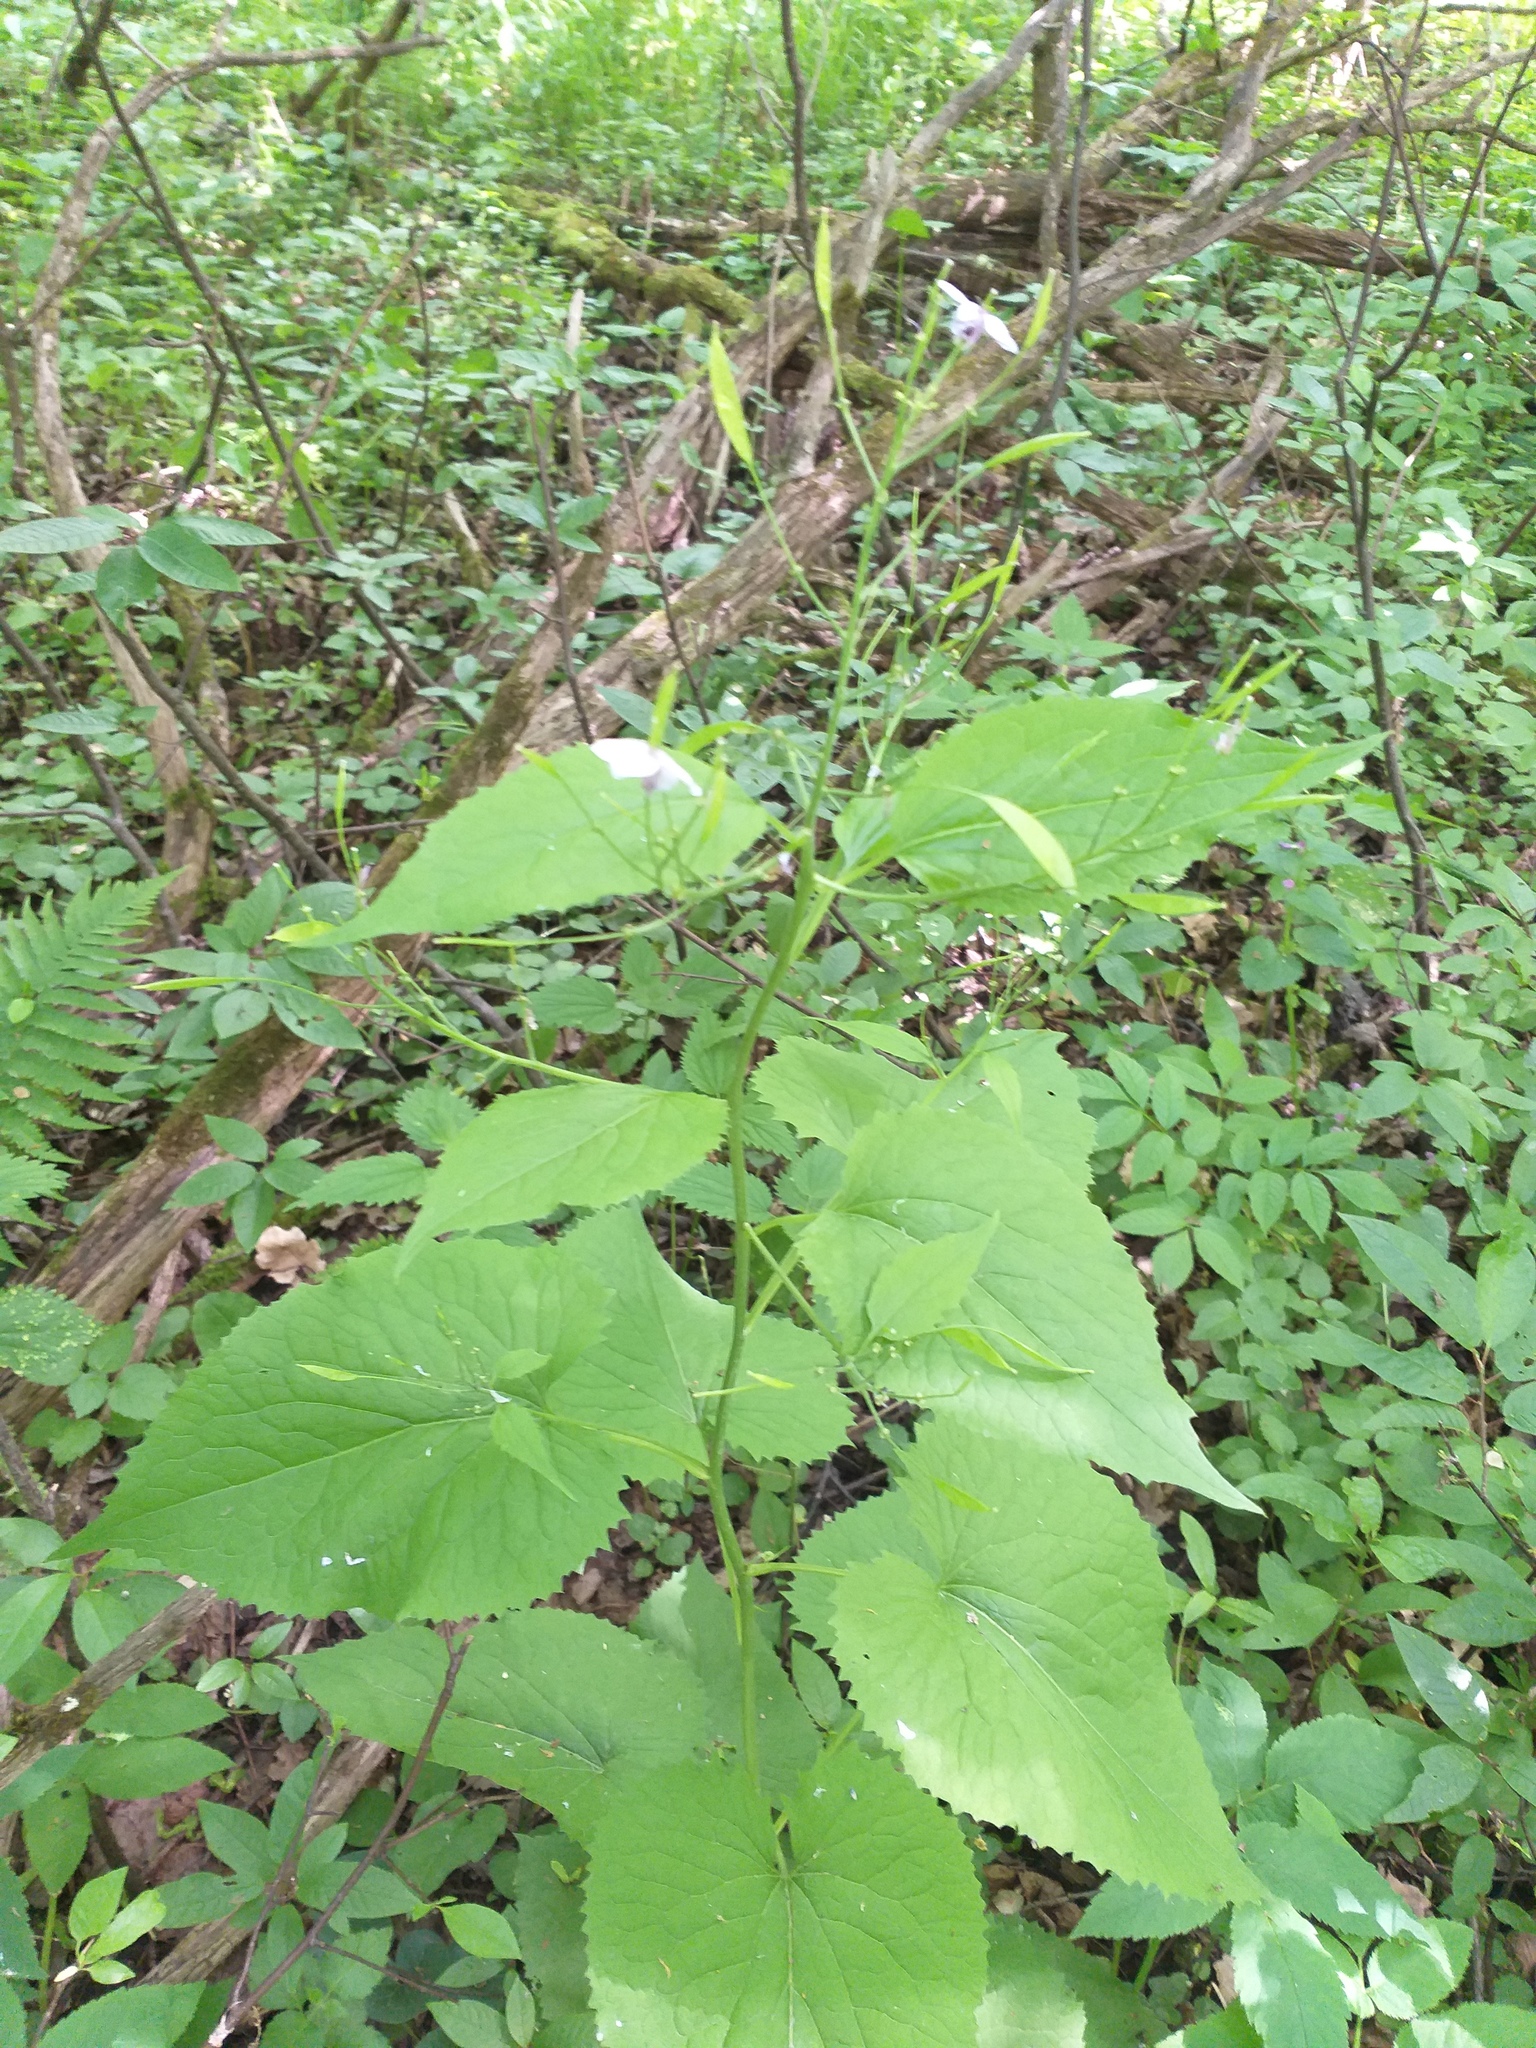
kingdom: Plantae
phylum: Tracheophyta
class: Magnoliopsida
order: Brassicales
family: Brassicaceae
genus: Lunaria
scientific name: Lunaria rediviva
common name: Perennial honesty
